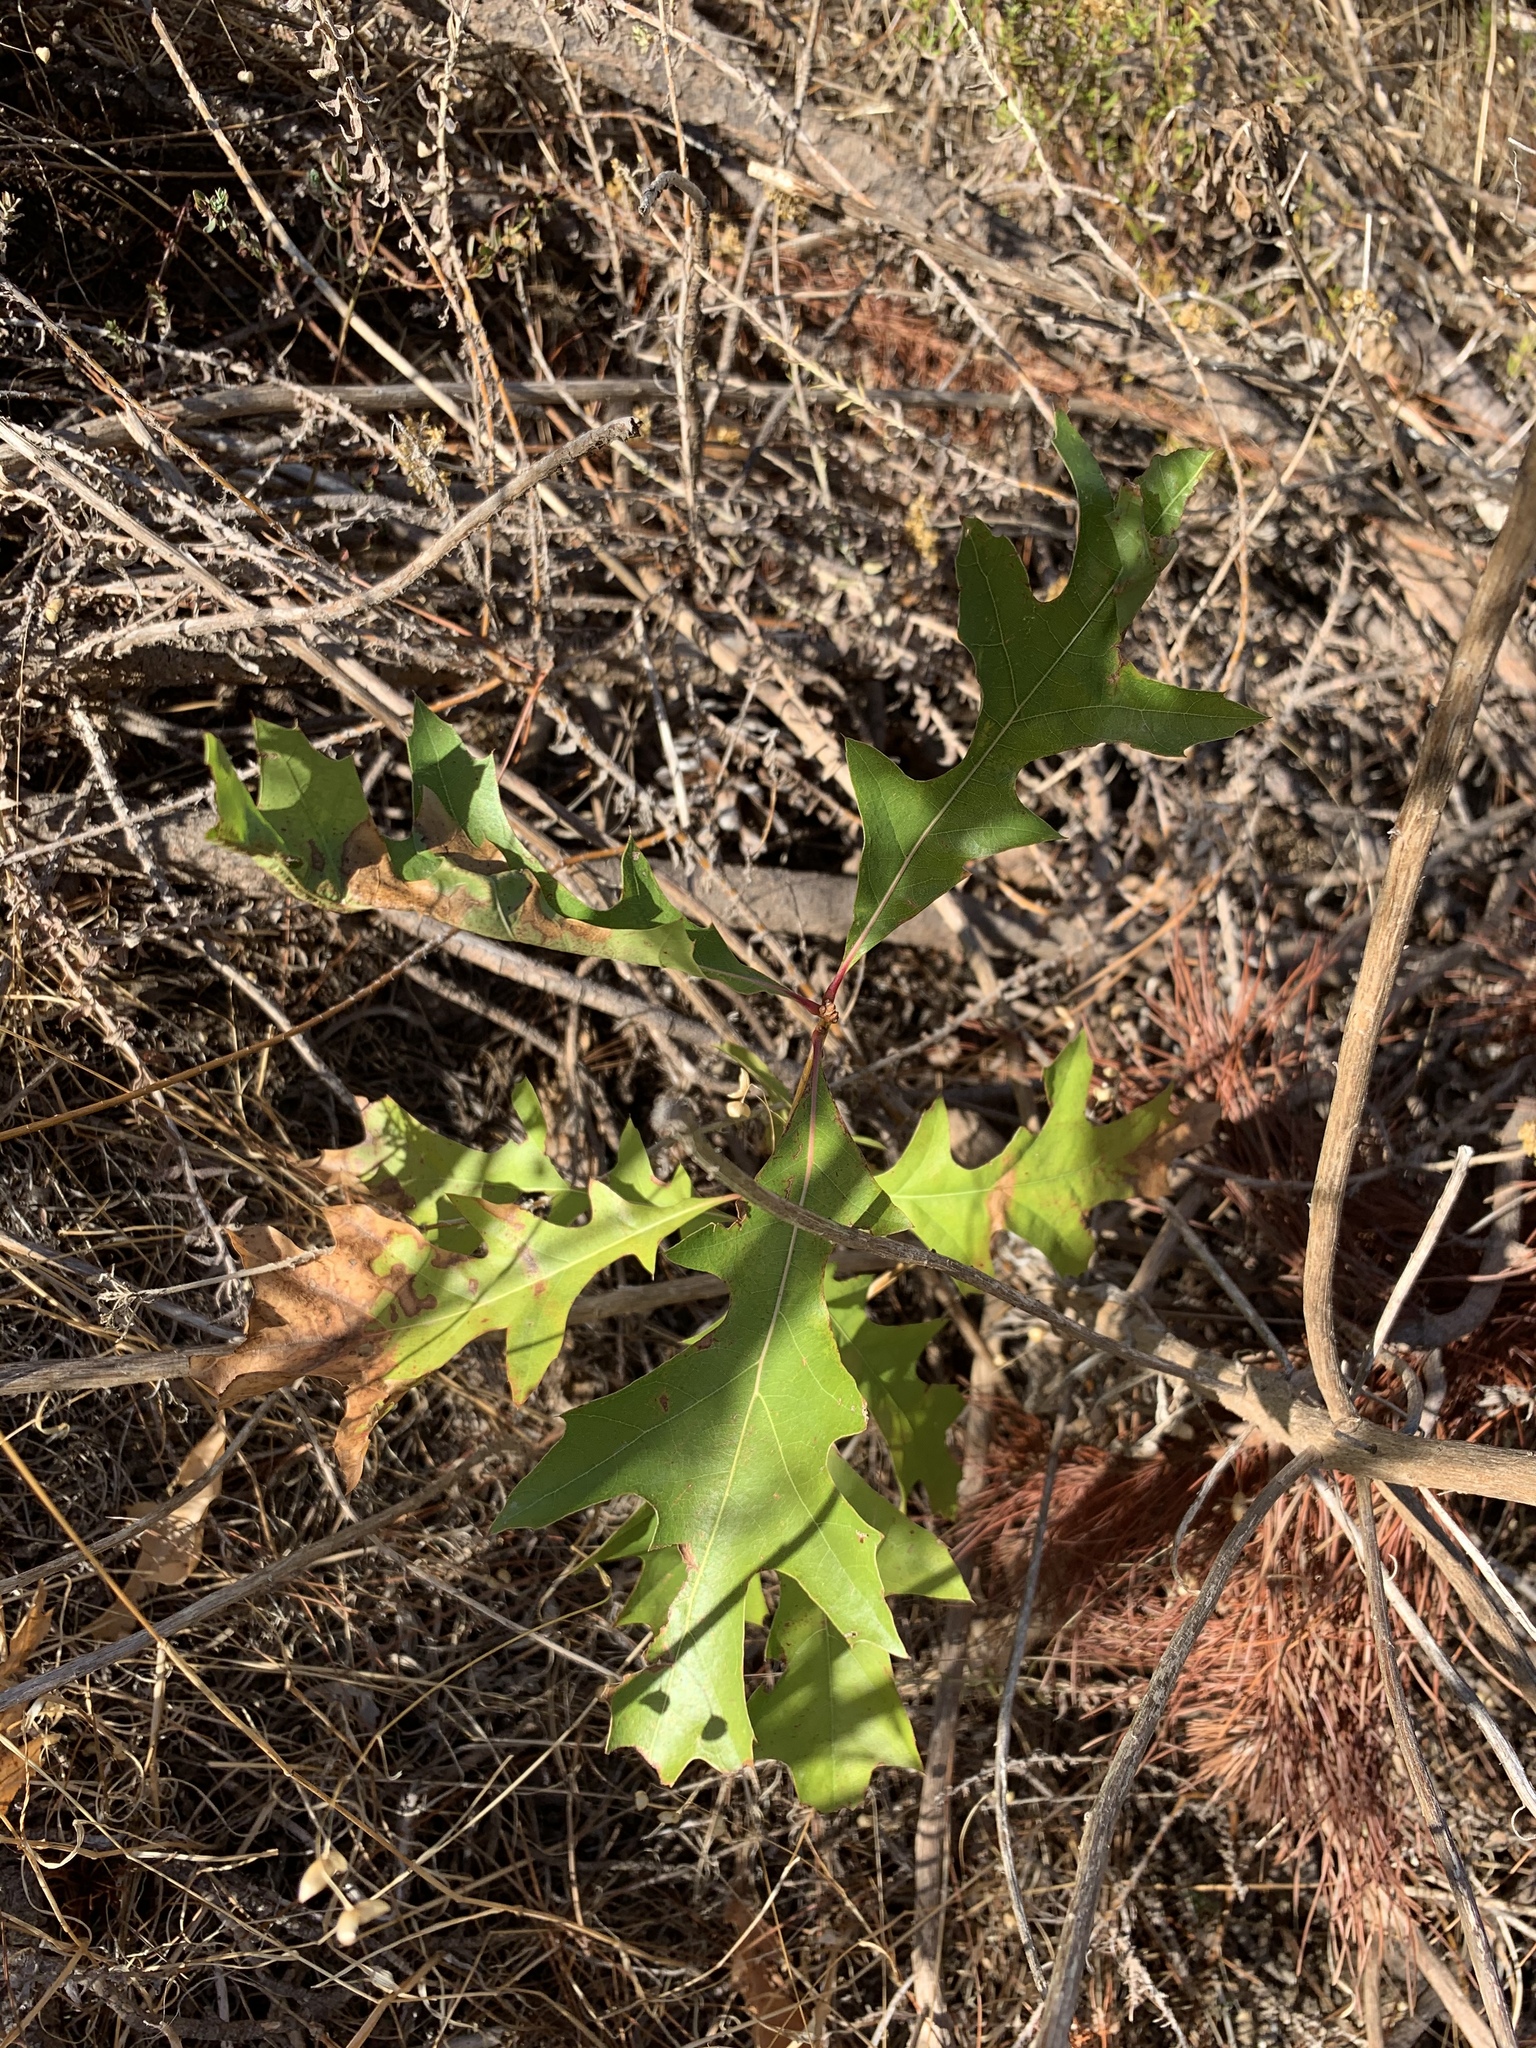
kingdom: Plantae
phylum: Tracheophyta
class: Magnoliopsida
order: Fagales
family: Fagaceae
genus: Quercus
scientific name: Quercus palustris
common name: Pin oak
